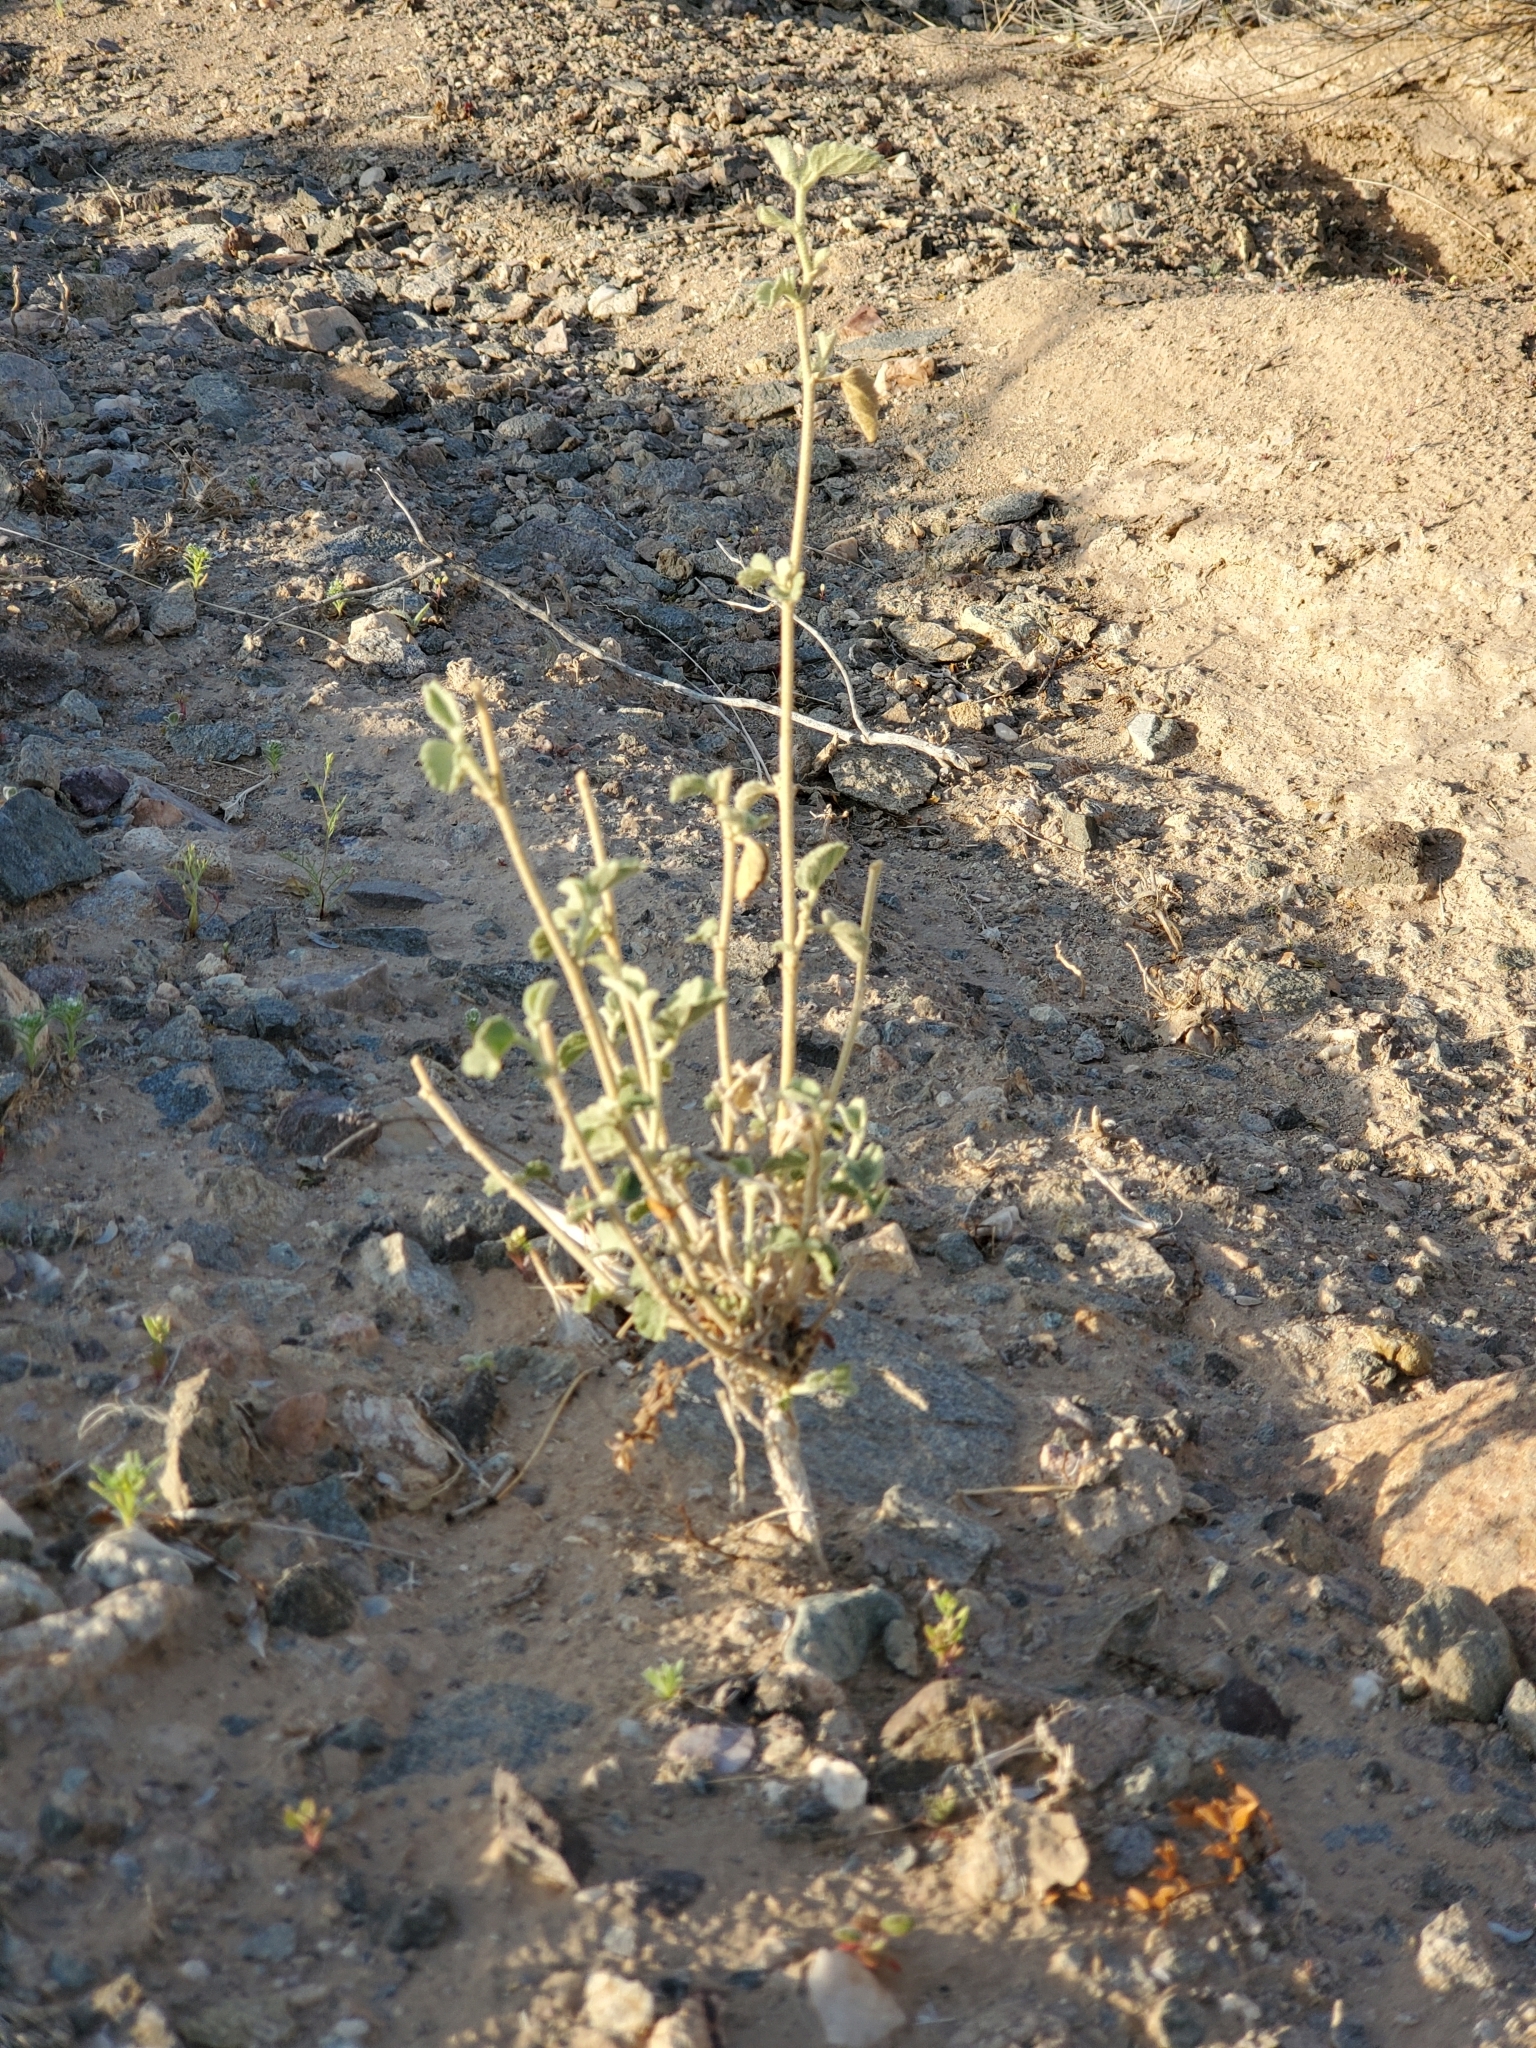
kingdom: Plantae
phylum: Tracheophyta
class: Magnoliopsida
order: Malvales
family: Malvaceae
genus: Hibiscus
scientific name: Hibiscus denudatus
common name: Paleface
